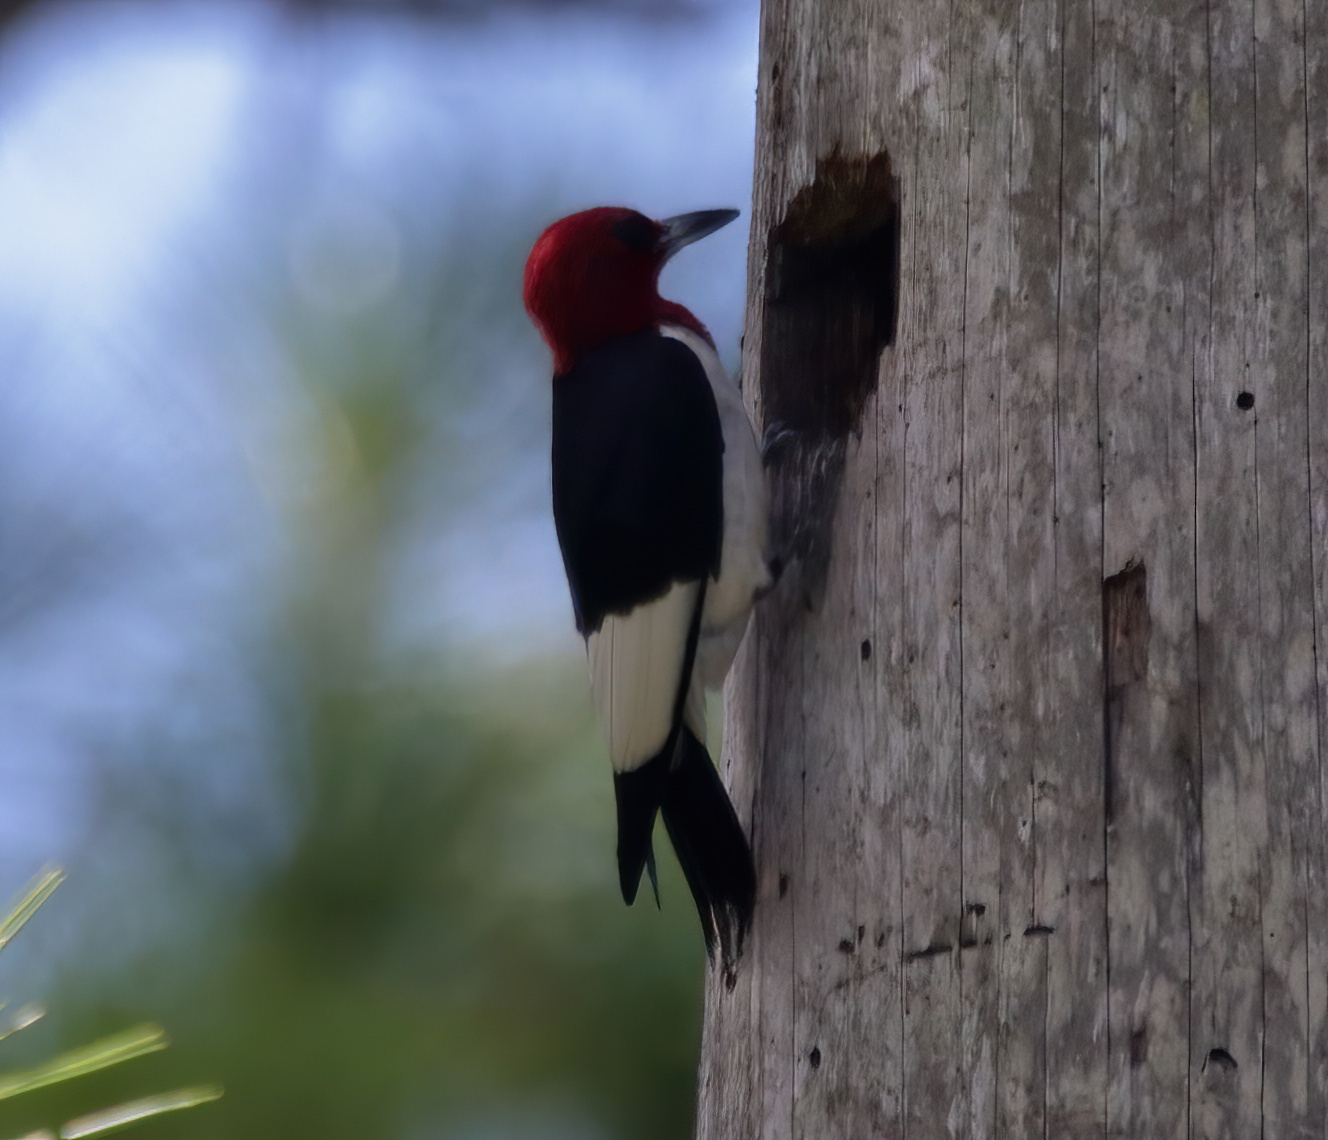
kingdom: Animalia
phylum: Chordata
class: Aves
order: Piciformes
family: Picidae
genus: Melanerpes
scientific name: Melanerpes erythrocephalus
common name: Red-headed woodpecker
